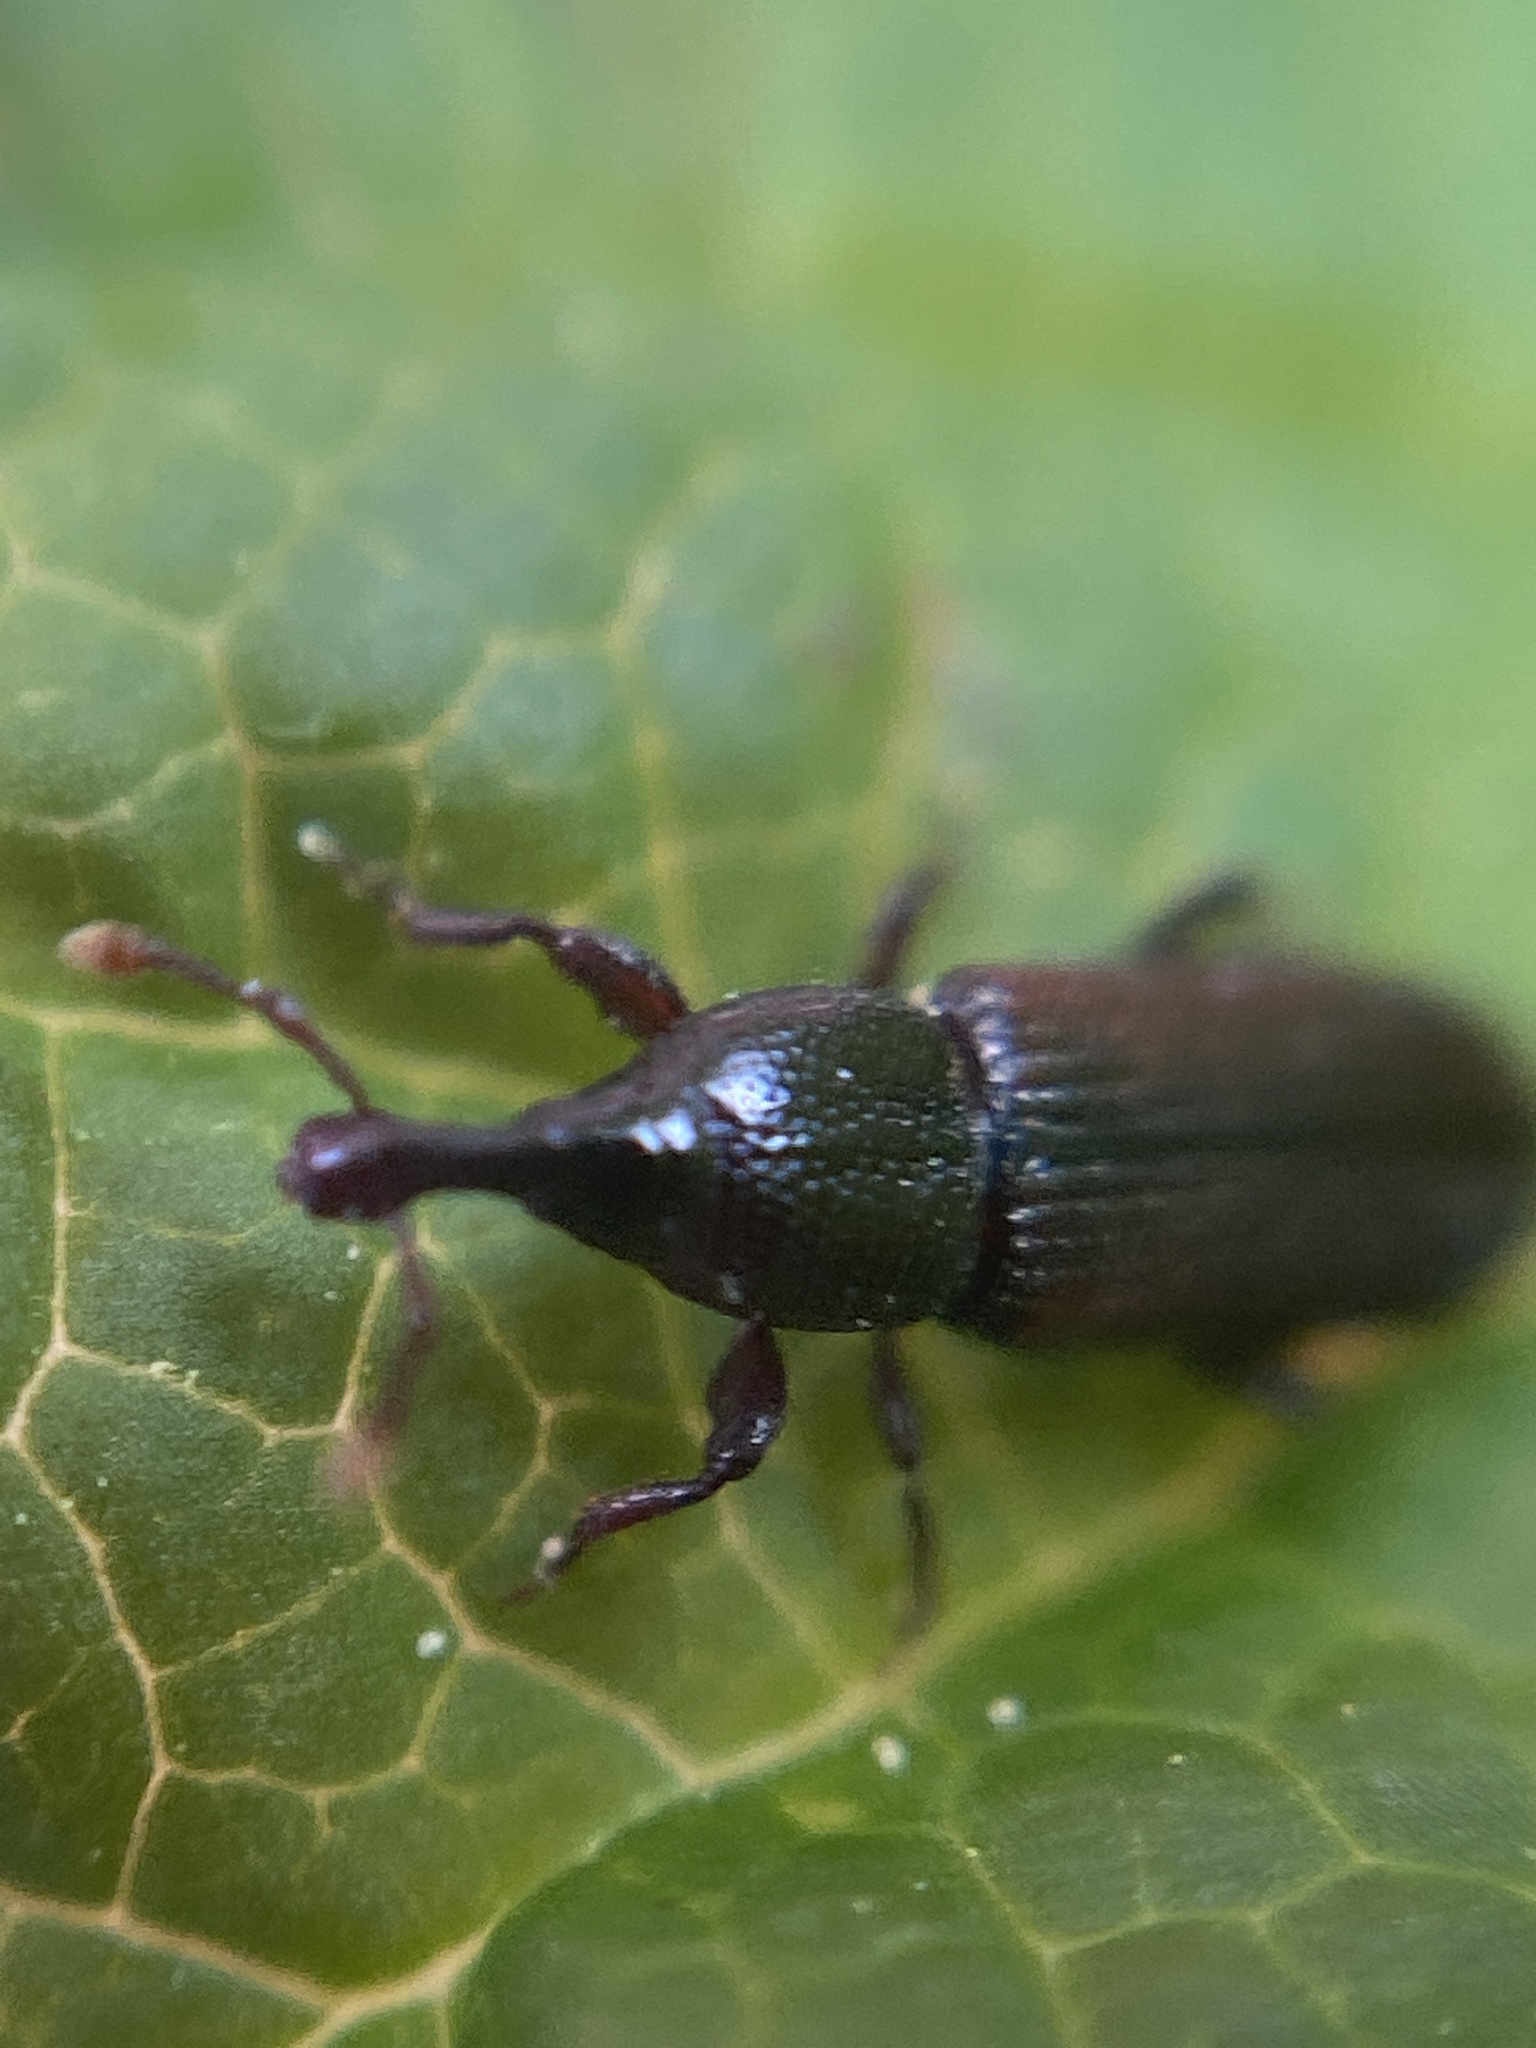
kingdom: Animalia
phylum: Arthropoda
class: Insecta
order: Coleoptera
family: Curculionidae
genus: Cossonus
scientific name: Cossonus linearis
